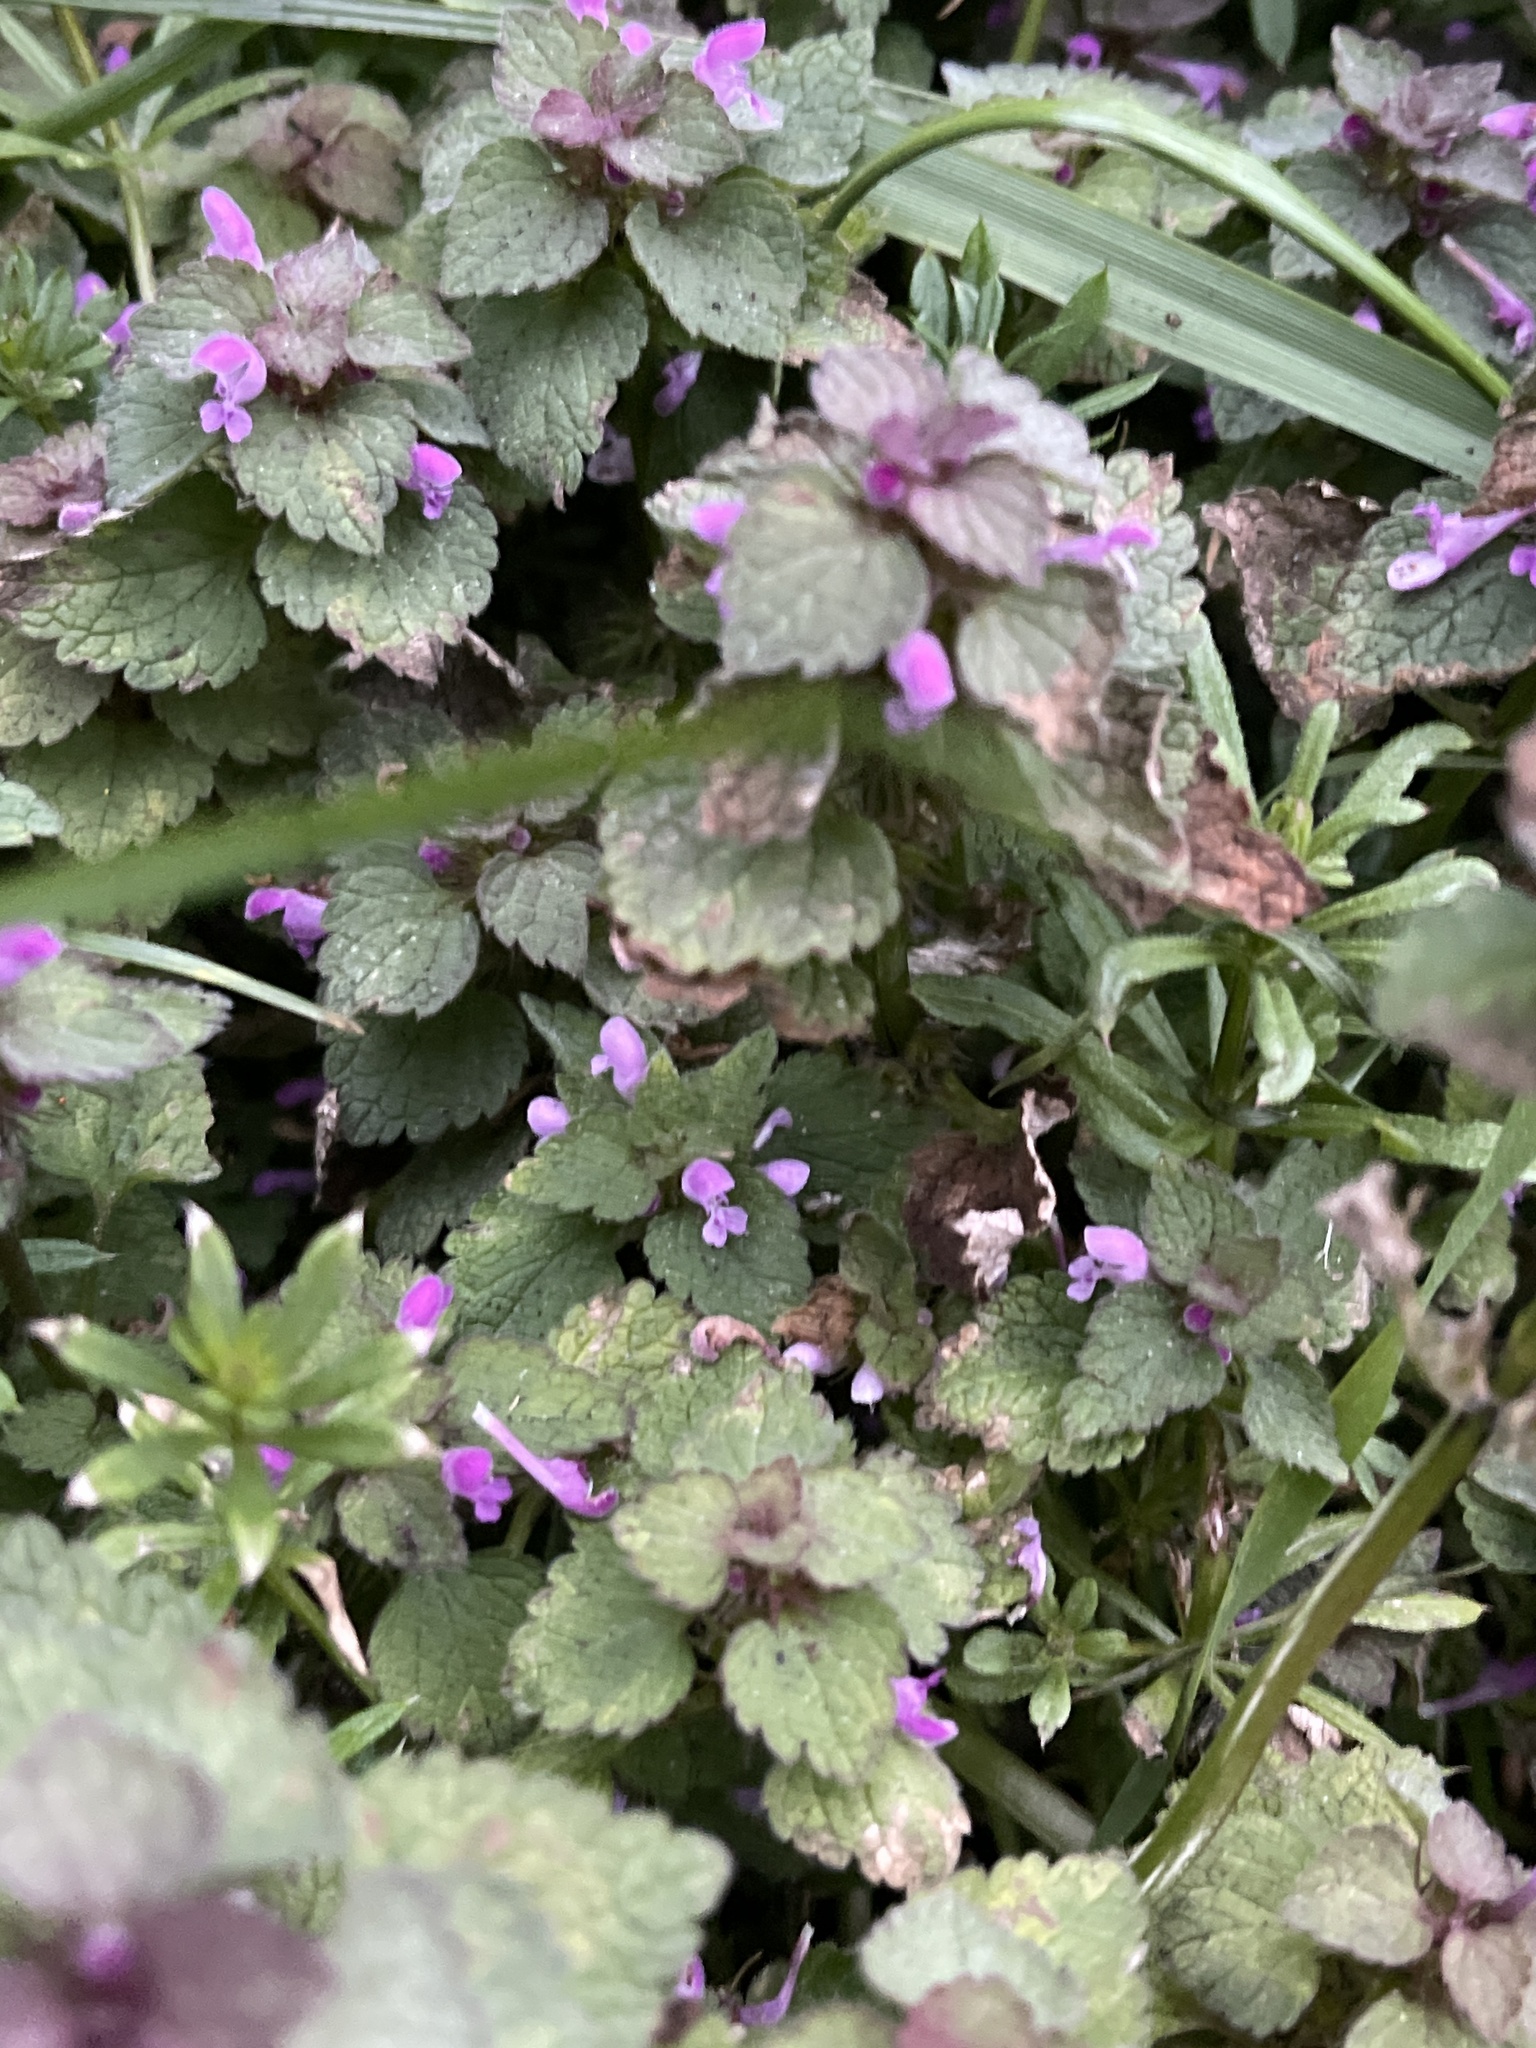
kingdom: Plantae
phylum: Tracheophyta
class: Magnoliopsida
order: Lamiales
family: Lamiaceae
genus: Lamium
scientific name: Lamium purpureum
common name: Red dead-nettle
